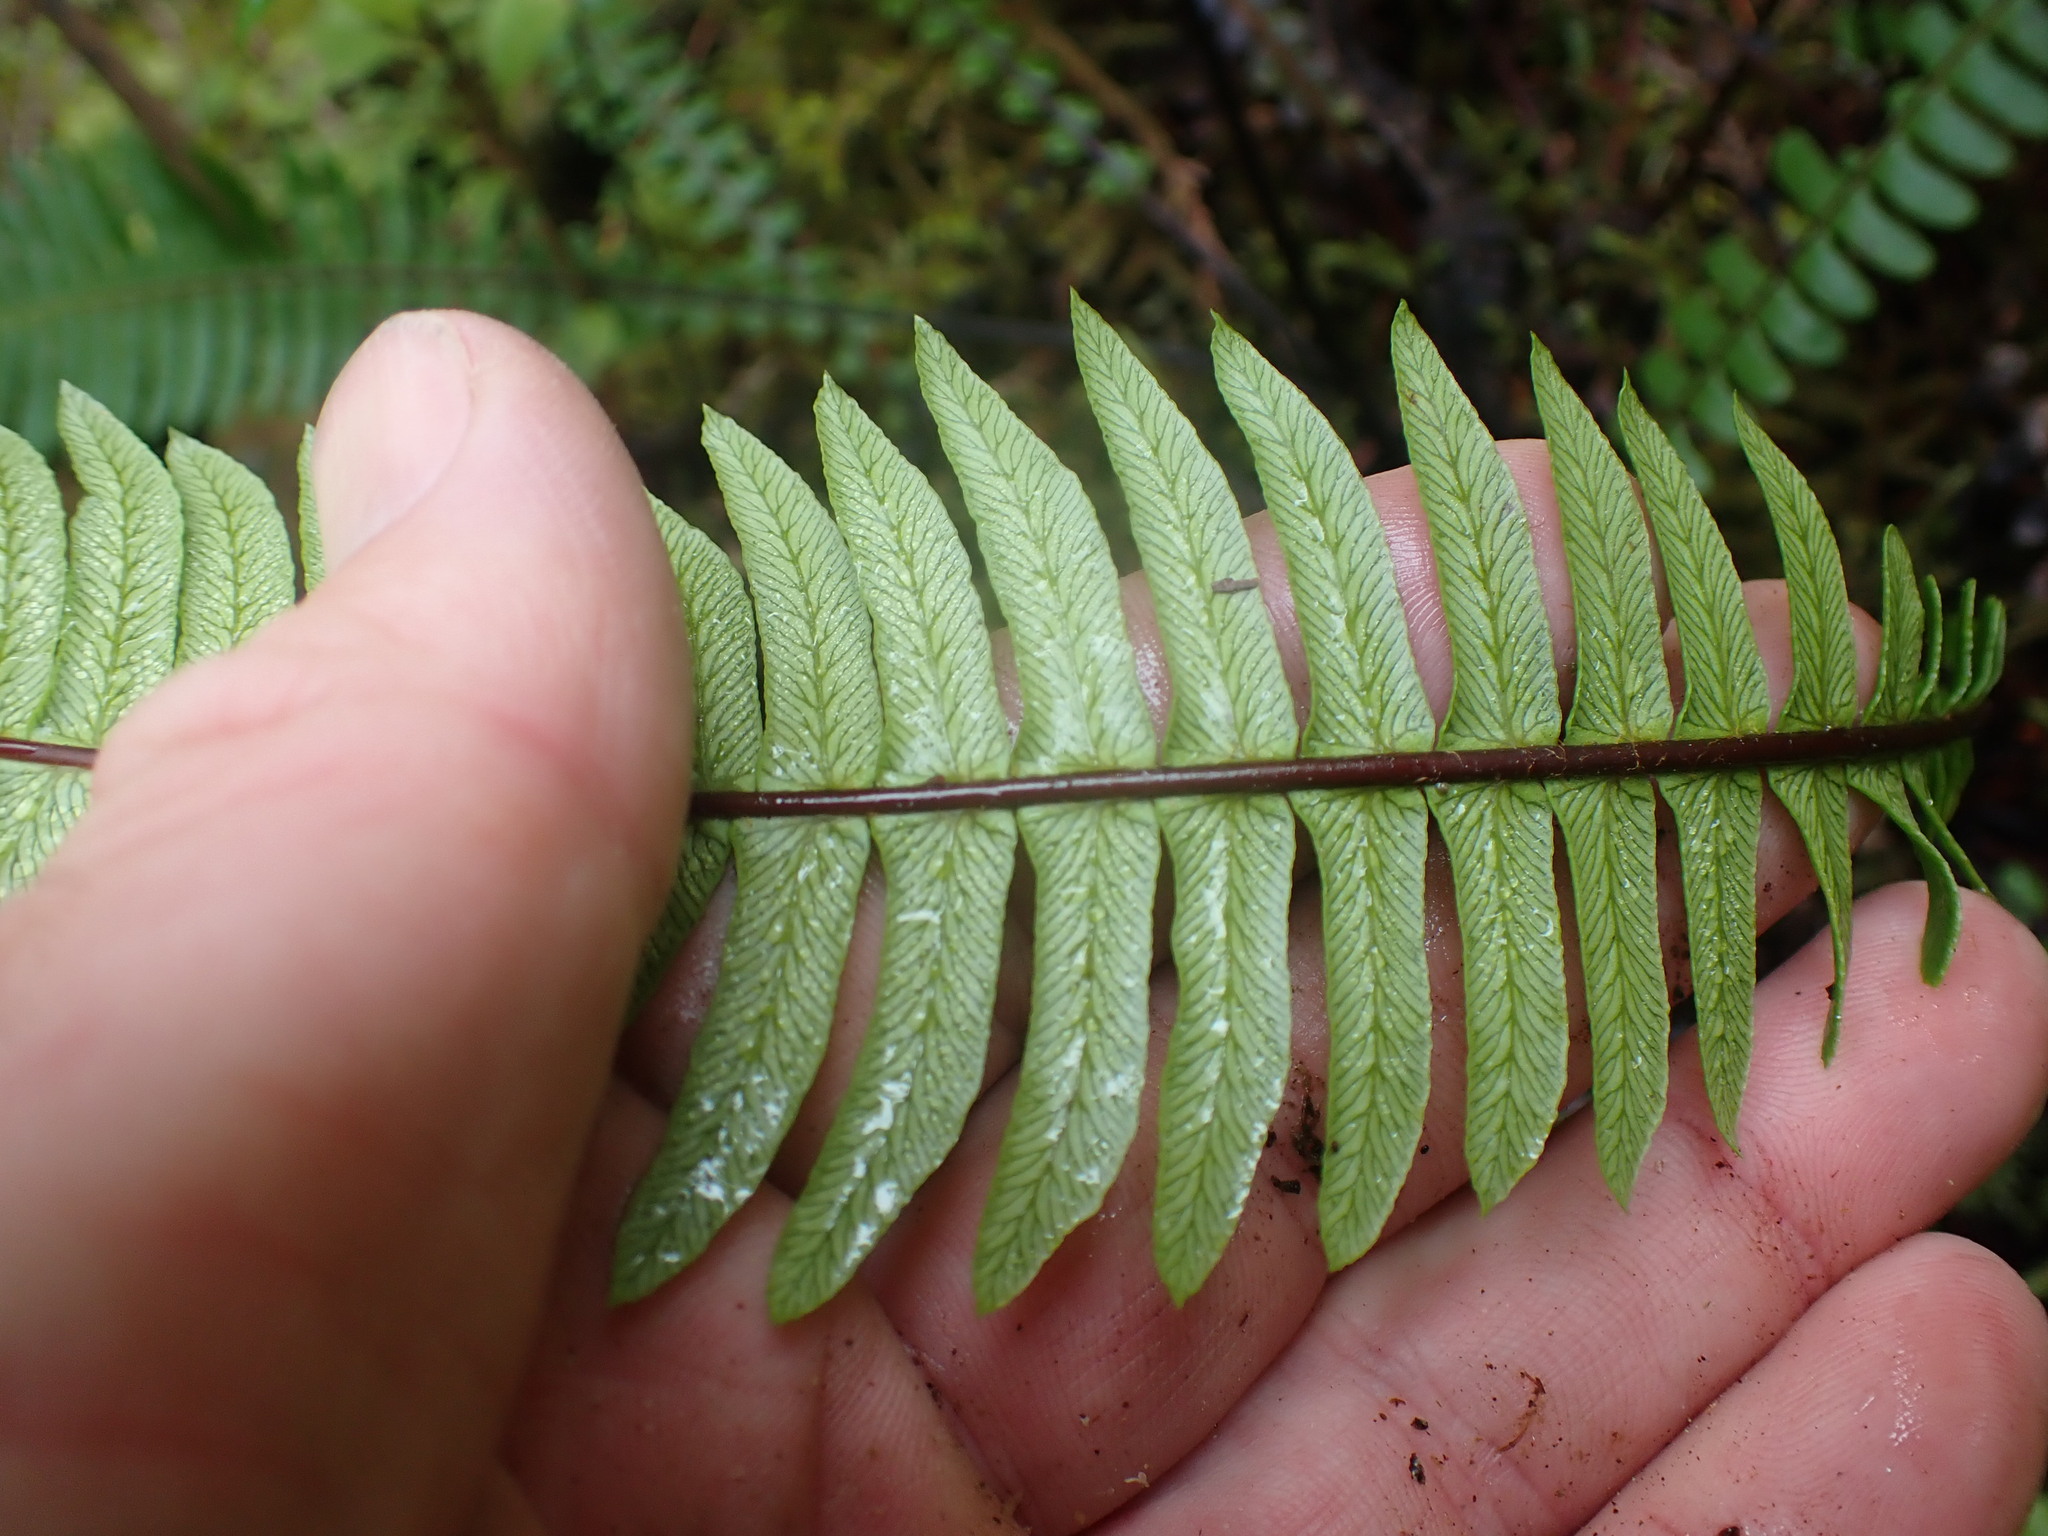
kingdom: Plantae
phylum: Tracheophyta
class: Polypodiopsida
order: Polypodiales
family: Blechnaceae
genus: Struthiopteris
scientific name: Struthiopteris spicant
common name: Deer fern
